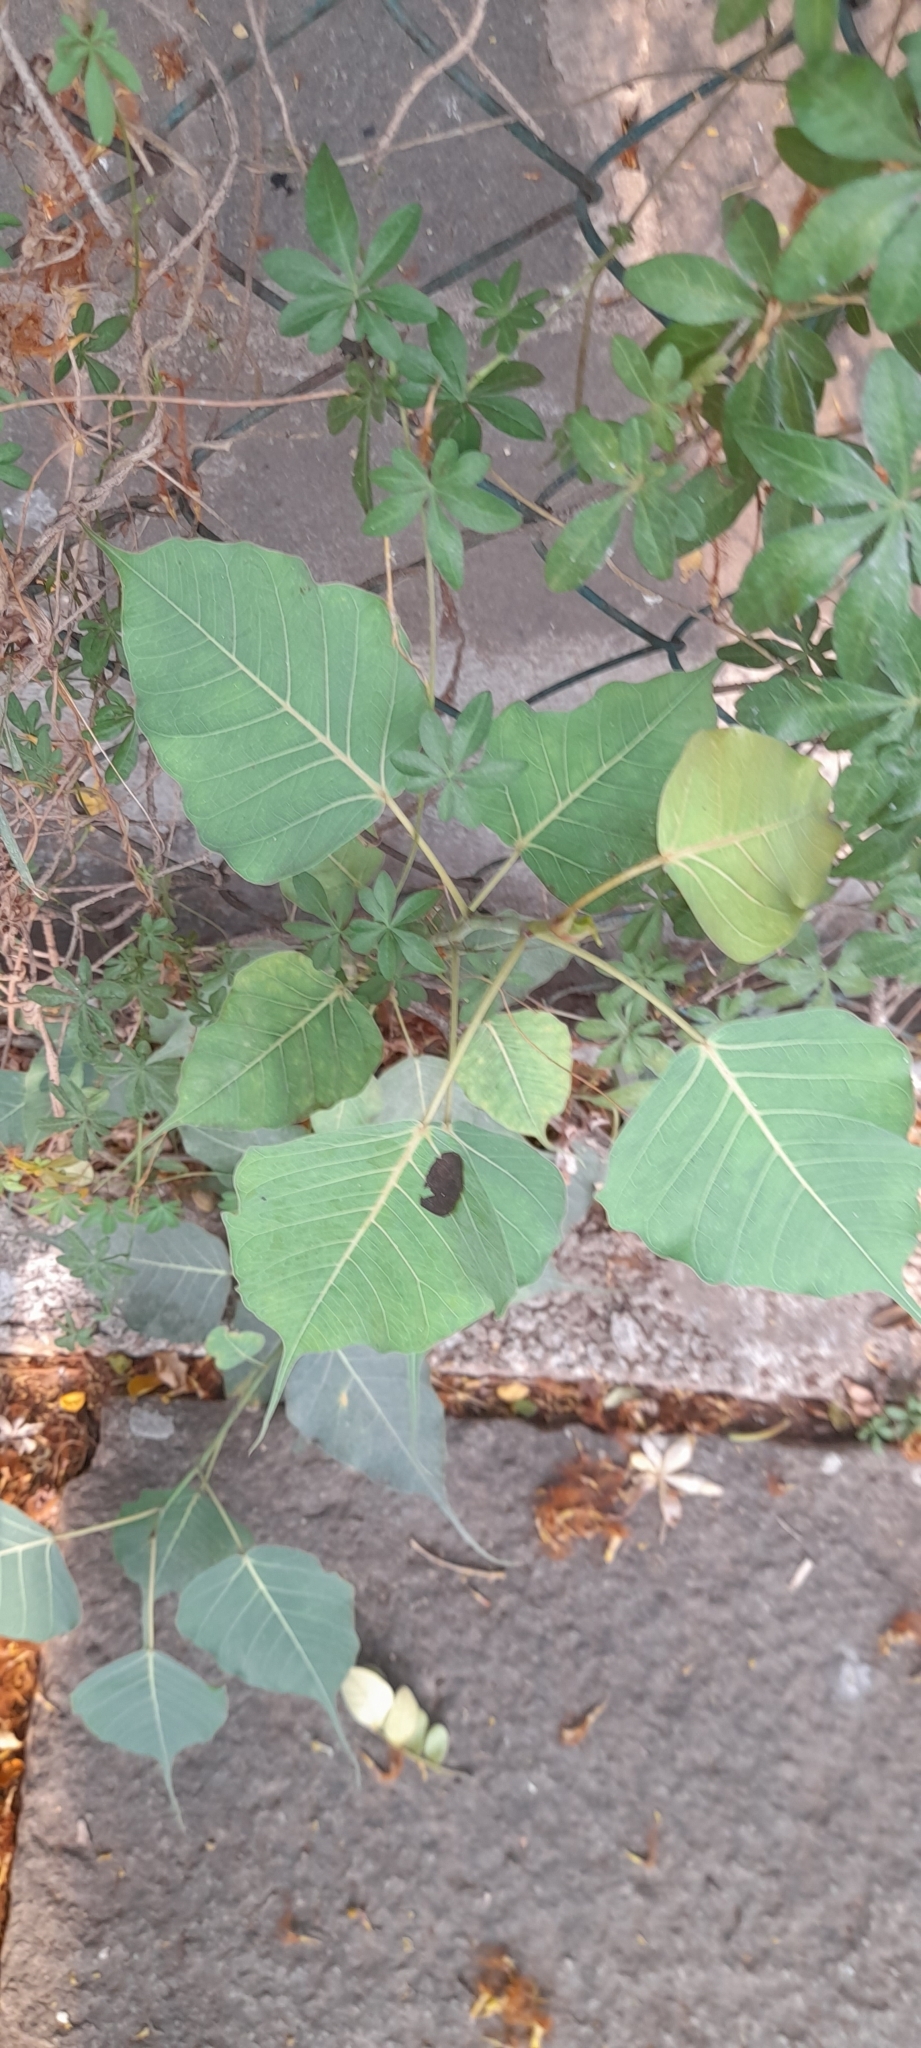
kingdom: Plantae
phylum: Tracheophyta
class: Magnoliopsida
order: Rosales
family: Moraceae
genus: Ficus
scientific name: Ficus religiosa
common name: Bodhi tree
